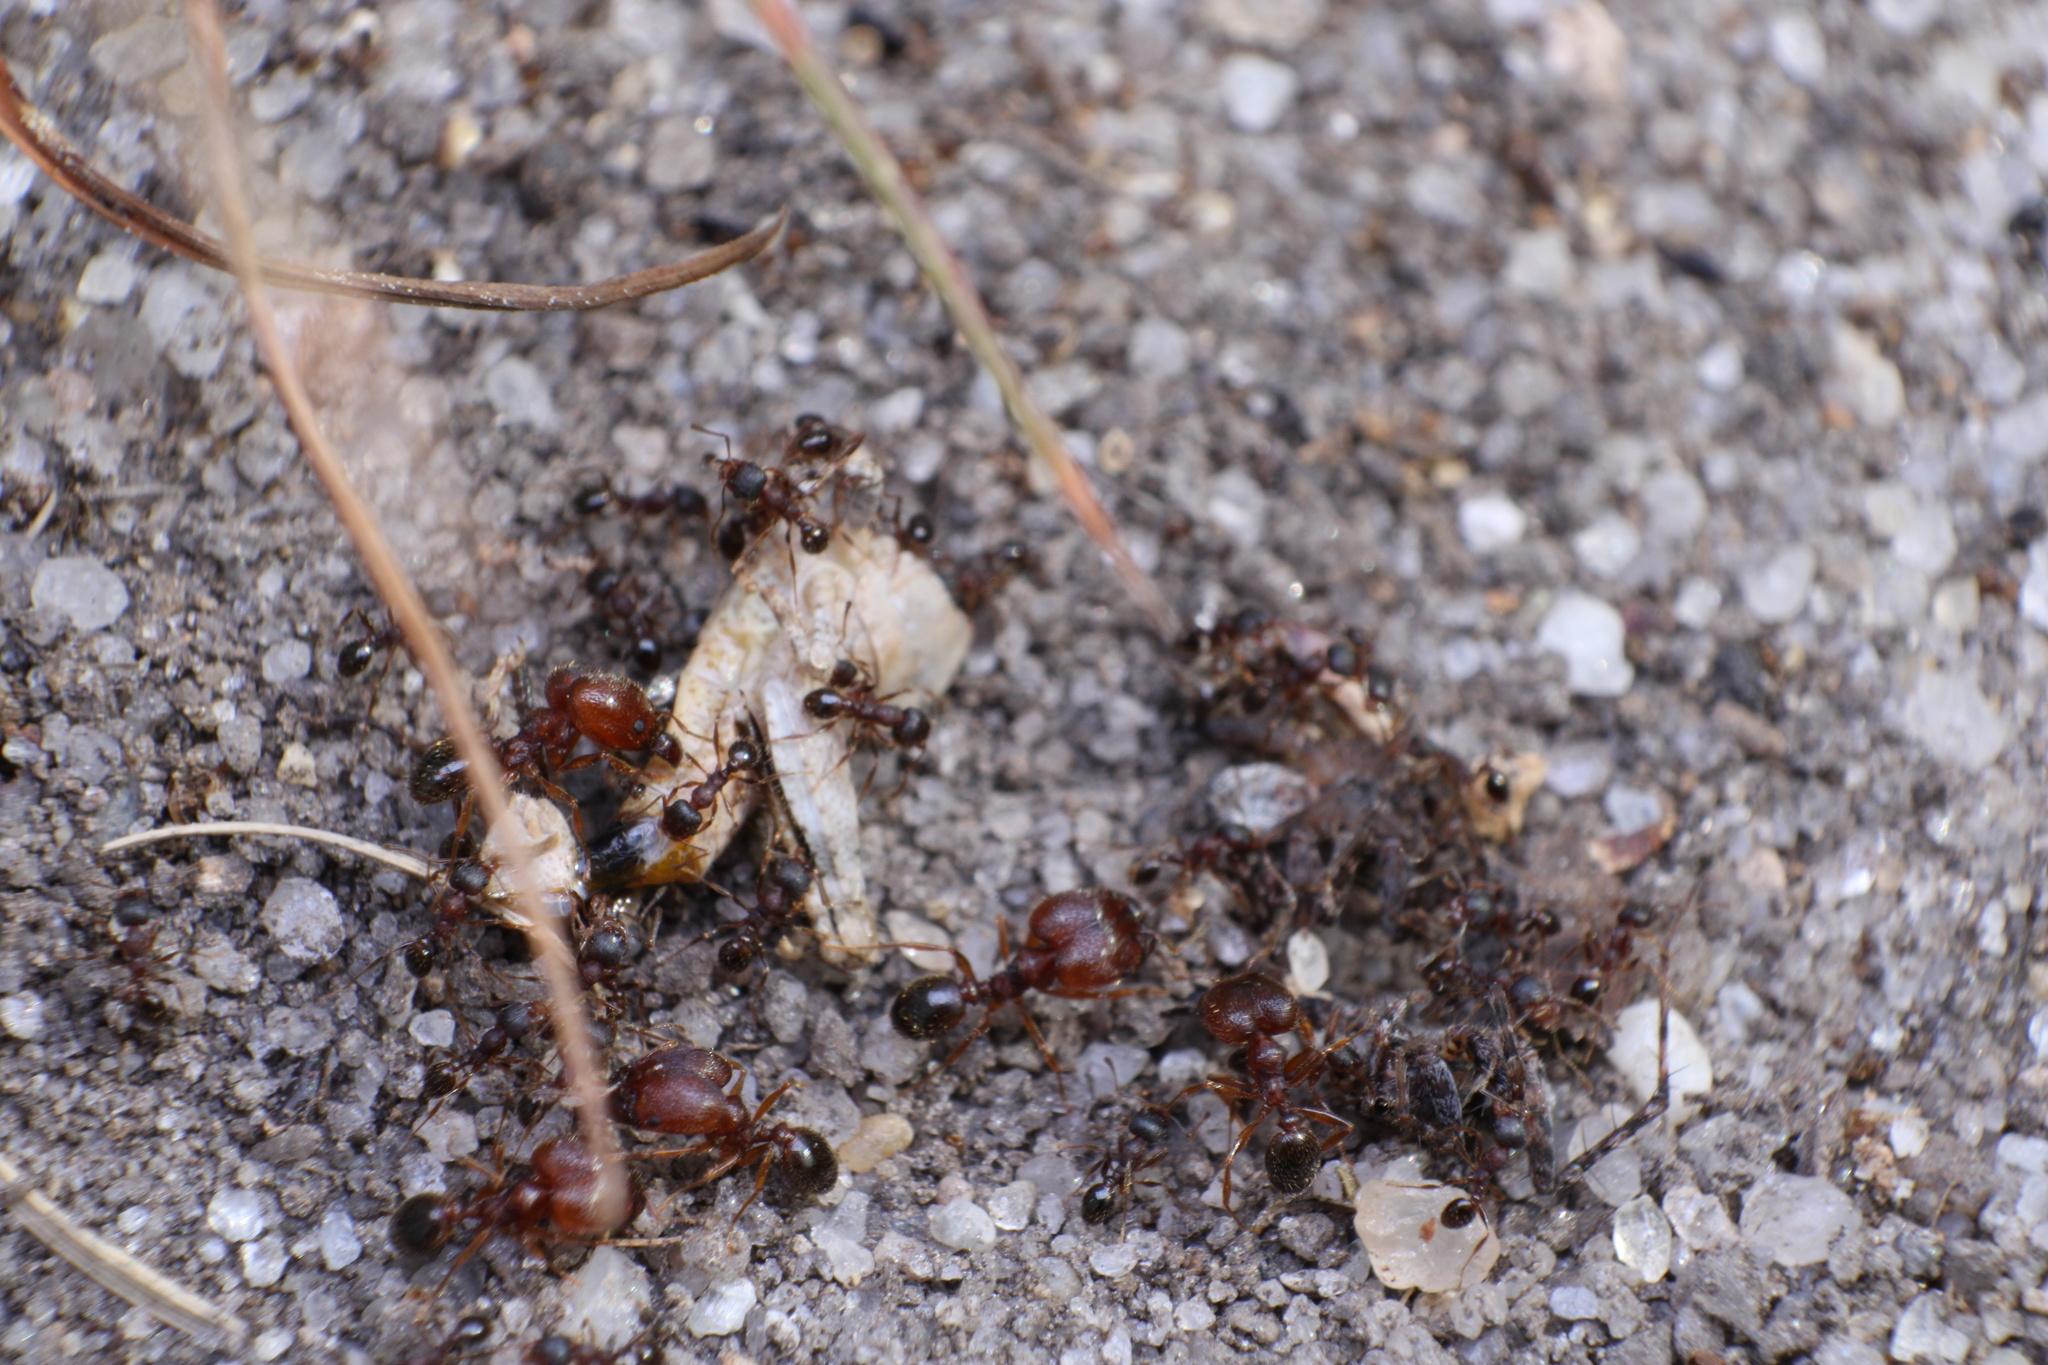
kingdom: Animalia
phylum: Arthropoda
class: Insecta
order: Hymenoptera
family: Formicidae
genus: Pheidole
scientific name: Pheidole pilifera
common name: Hairy big-headed ant
